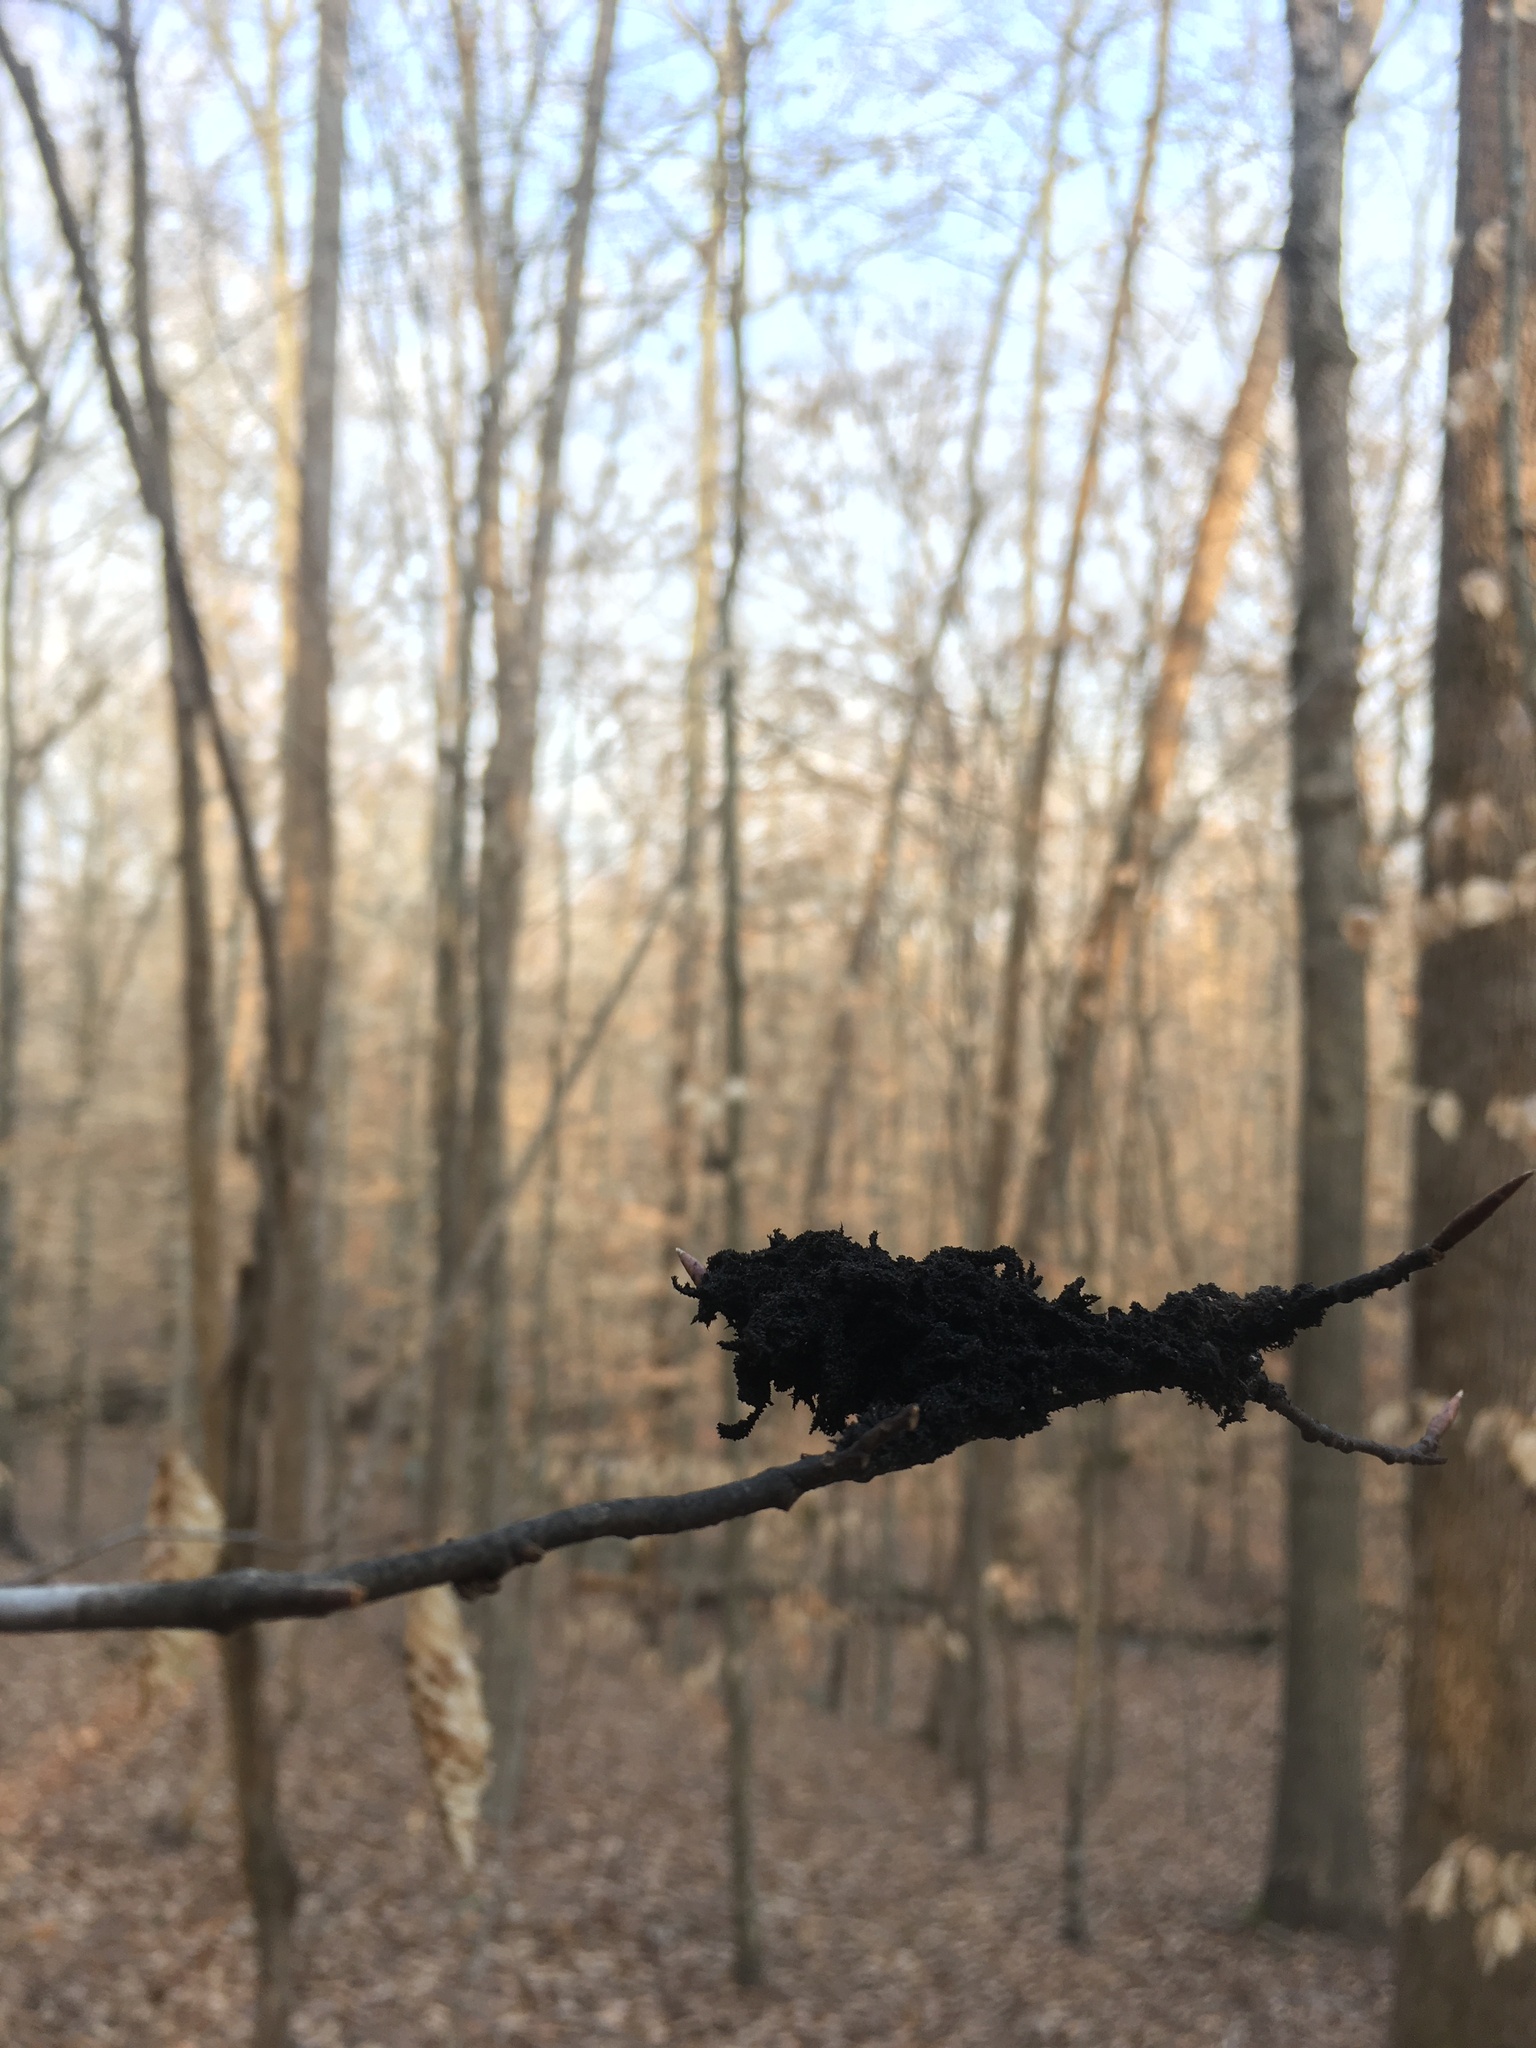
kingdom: Fungi
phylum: Ascomycota
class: Dothideomycetes
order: Capnodiales
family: Capnodiaceae
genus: Scorias
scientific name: Scorias spongiosa
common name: Black sooty mold
